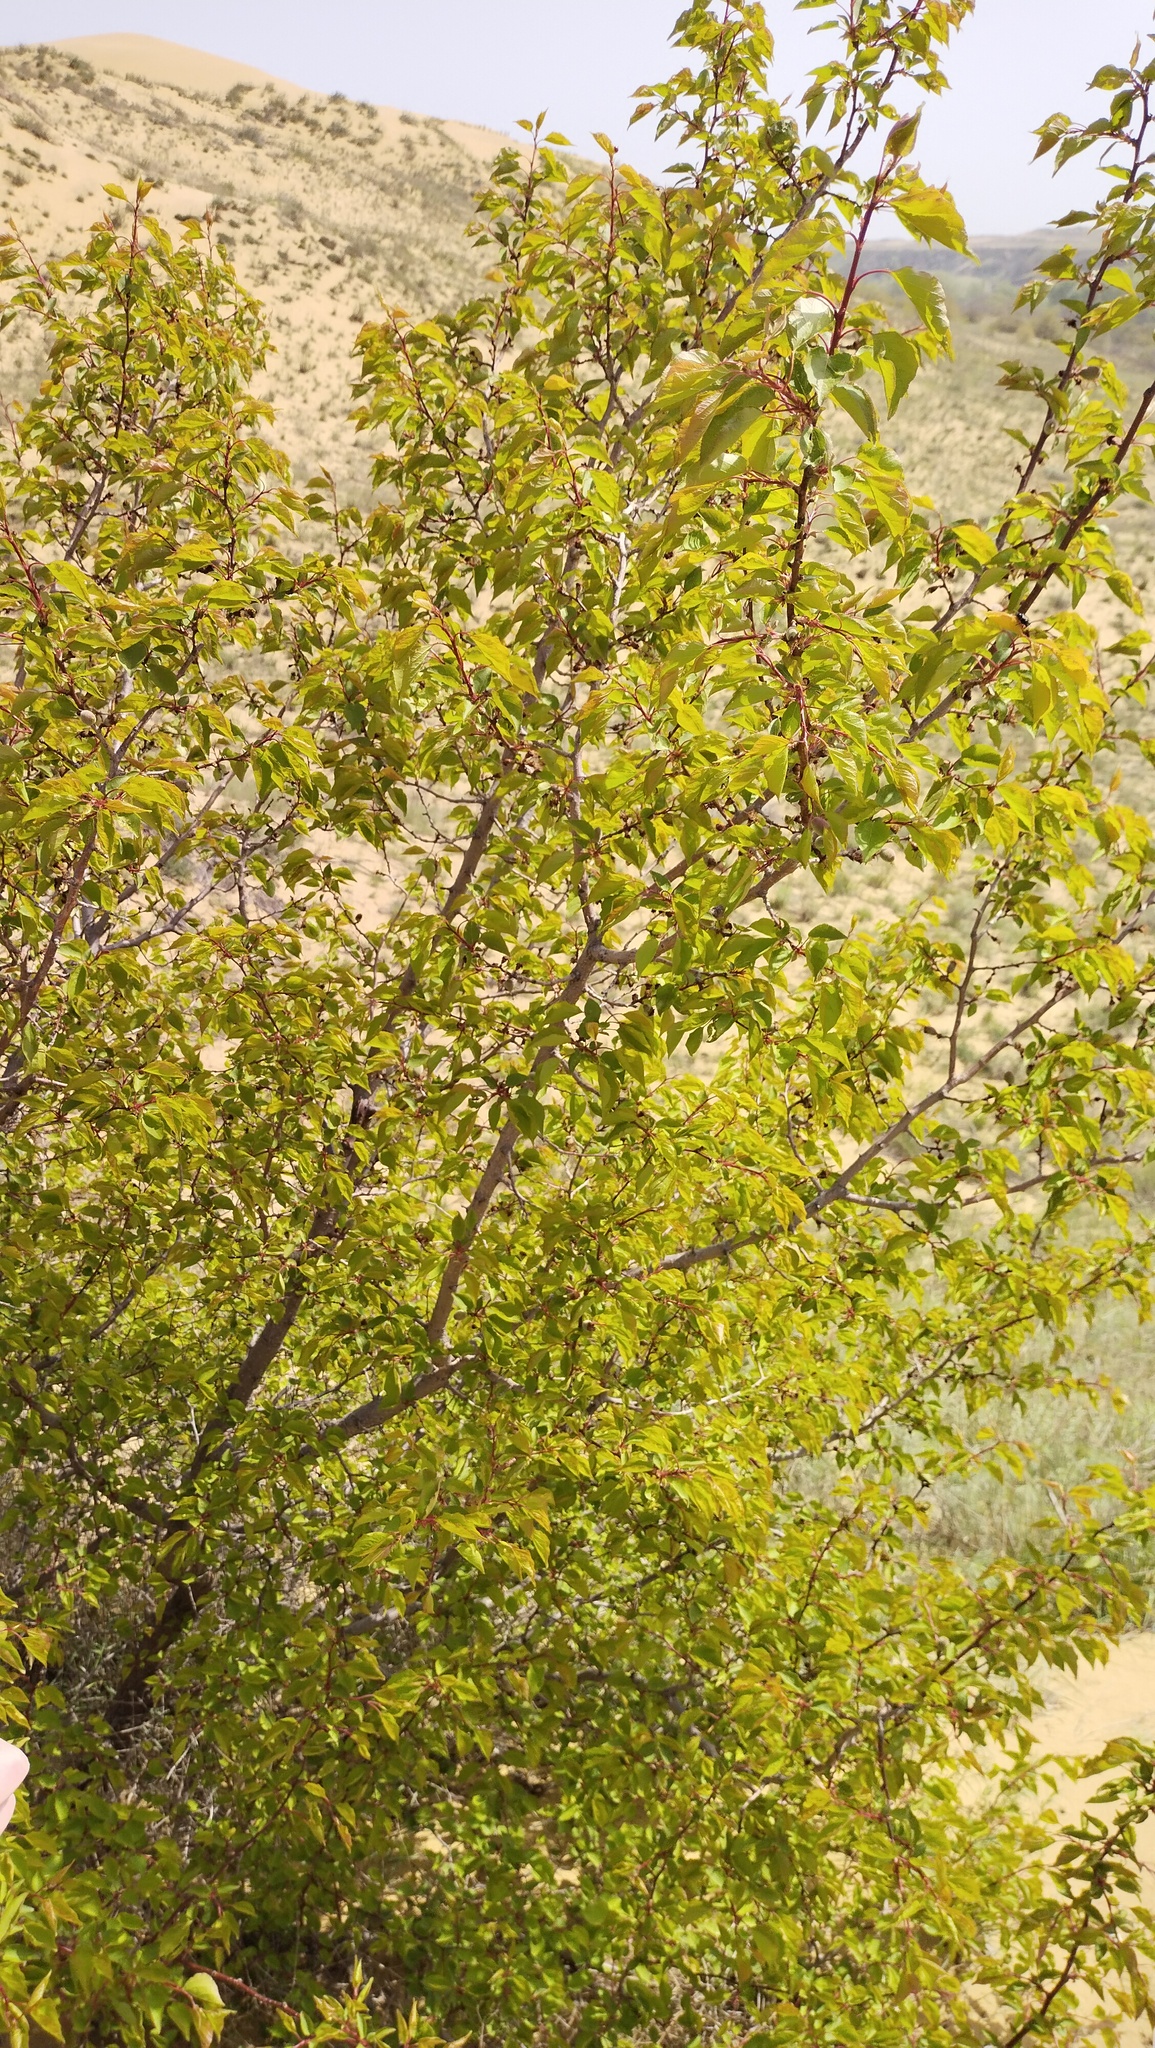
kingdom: Plantae
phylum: Tracheophyta
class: Magnoliopsida
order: Rosales
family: Rosaceae
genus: Prunus
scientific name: Prunus armeniaca
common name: Apricot
